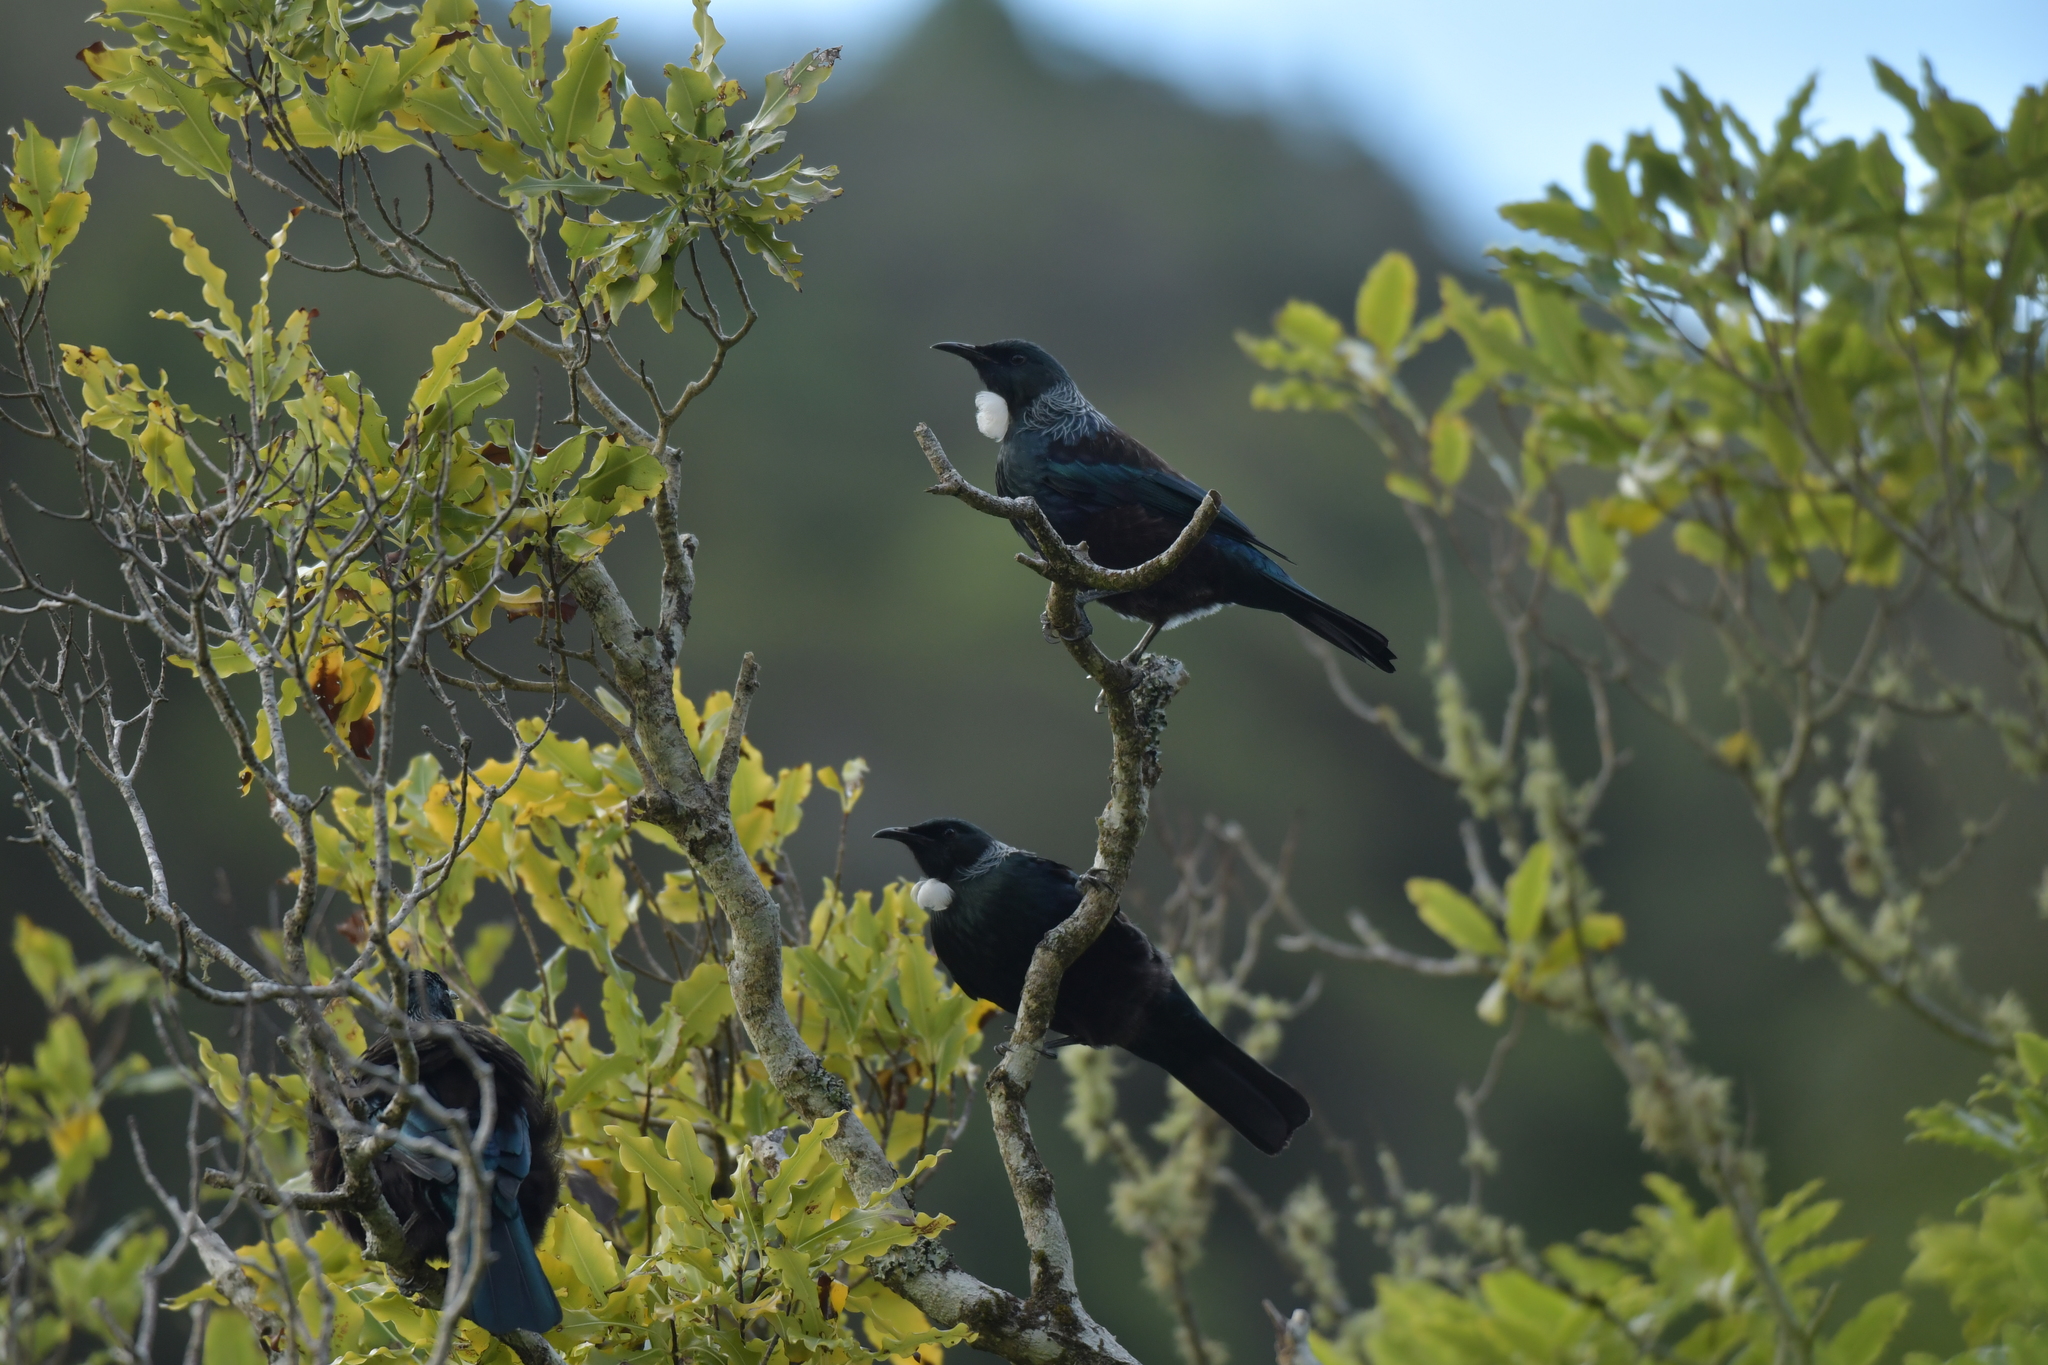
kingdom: Animalia
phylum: Chordata
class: Aves
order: Passeriformes
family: Meliphagidae
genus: Prosthemadera
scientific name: Prosthemadera novaeseelandiae
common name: Tui
